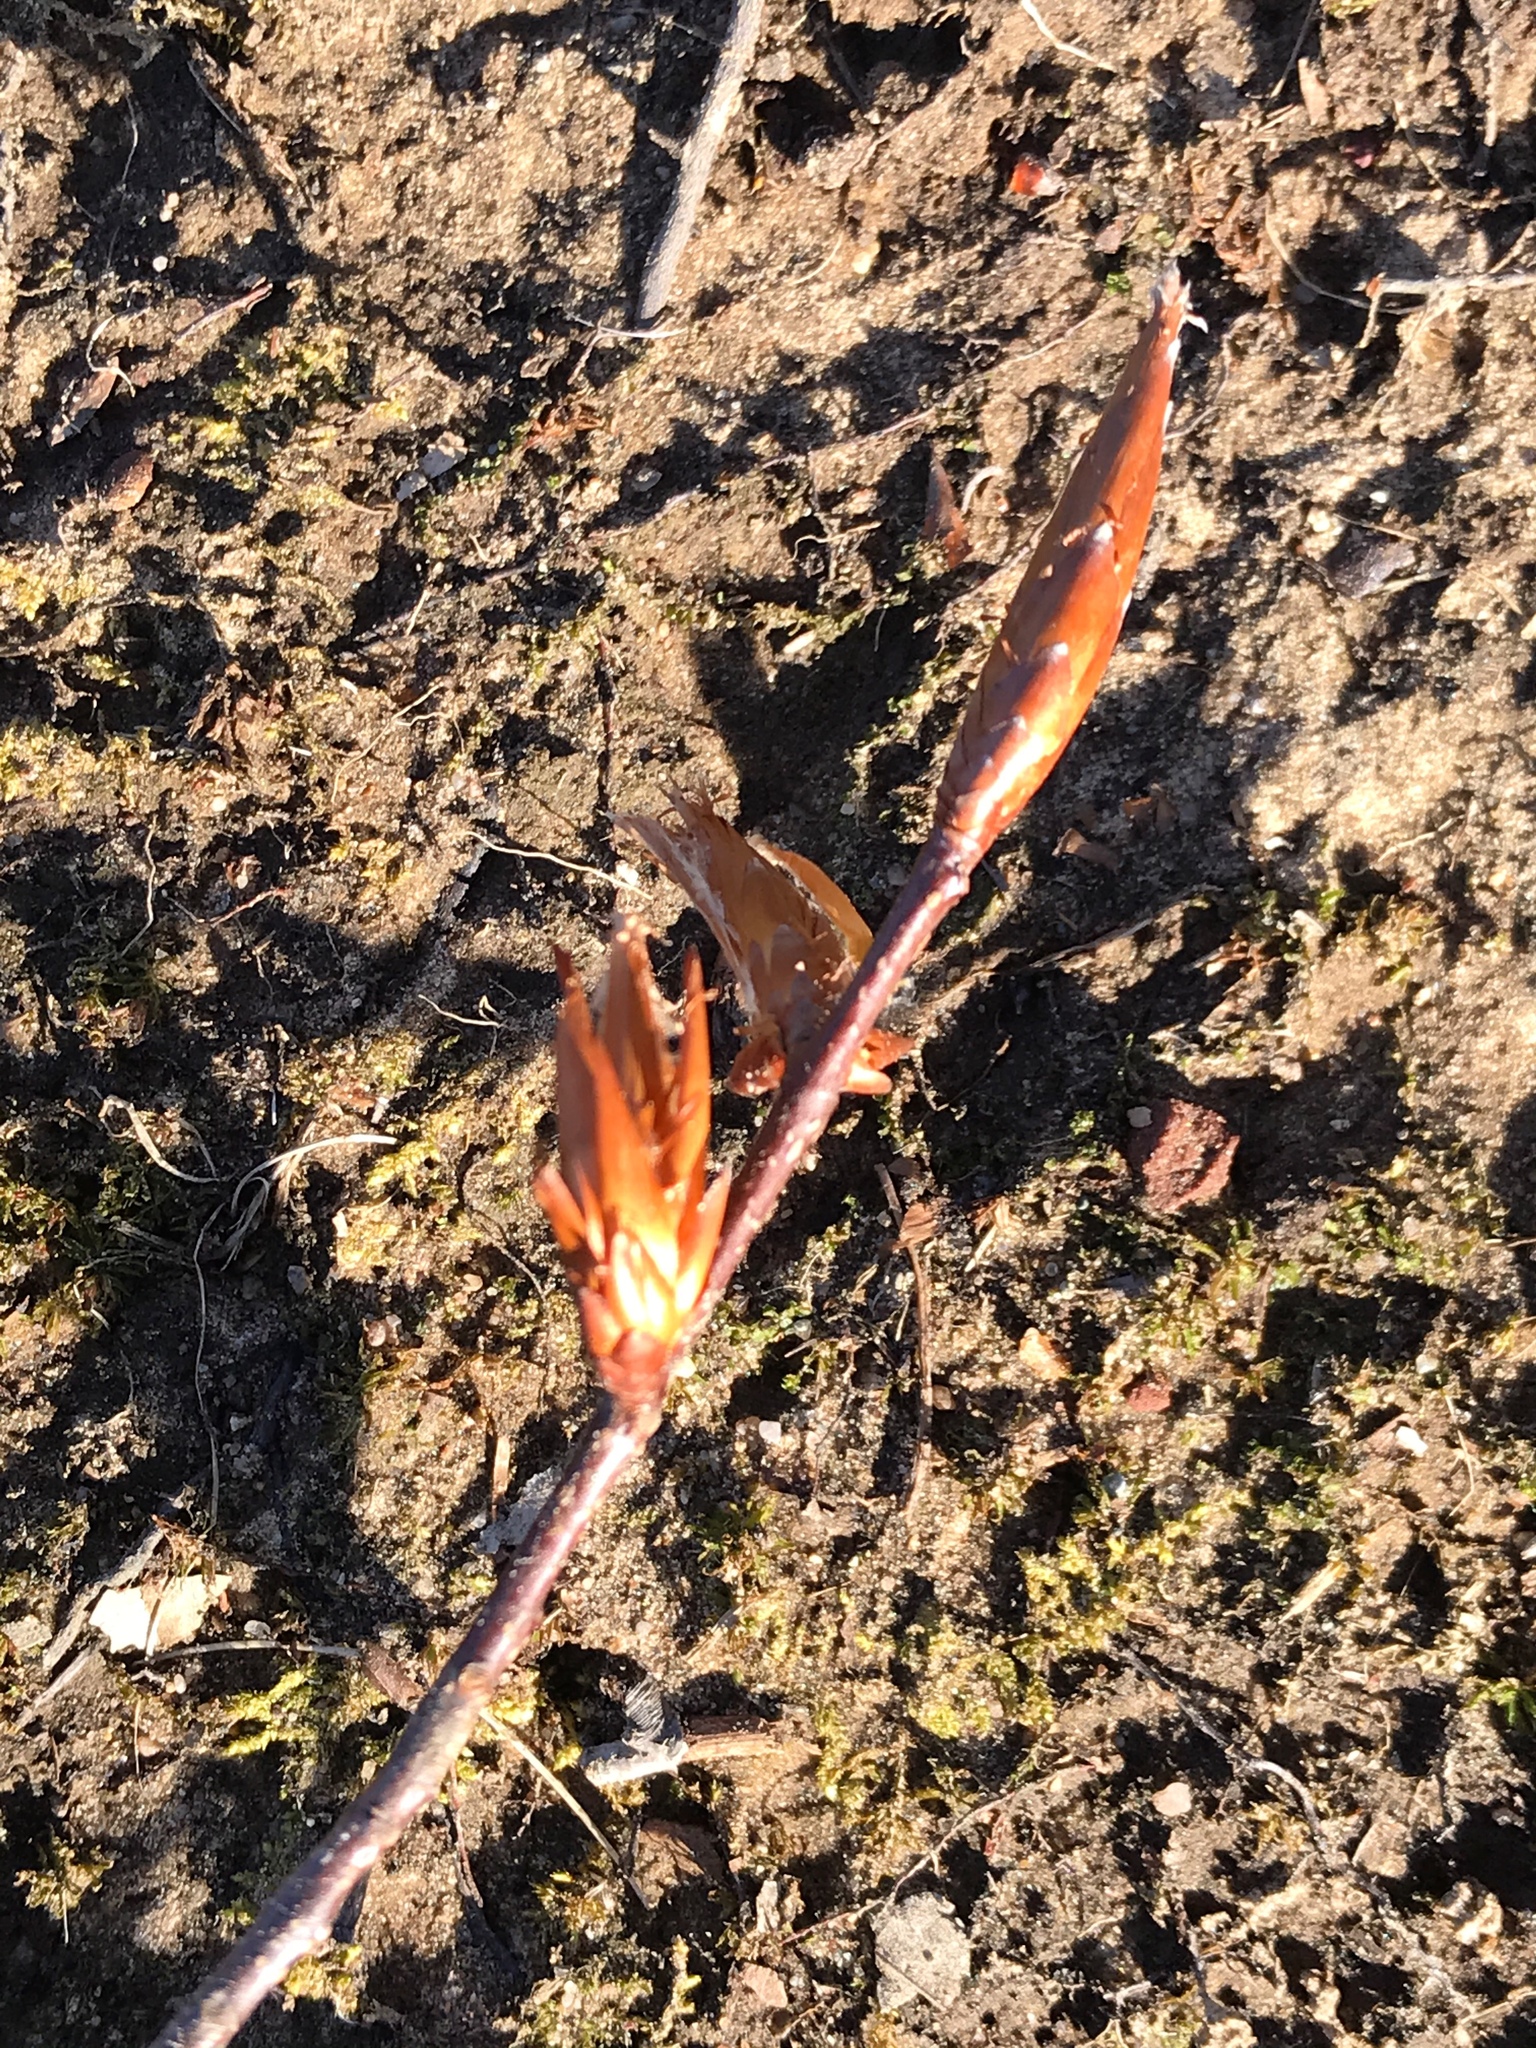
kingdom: Plantae
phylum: Tracheophyta
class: Magnoliopsida
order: Fagales
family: Fagaceae
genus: Fagus
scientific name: Fagus
